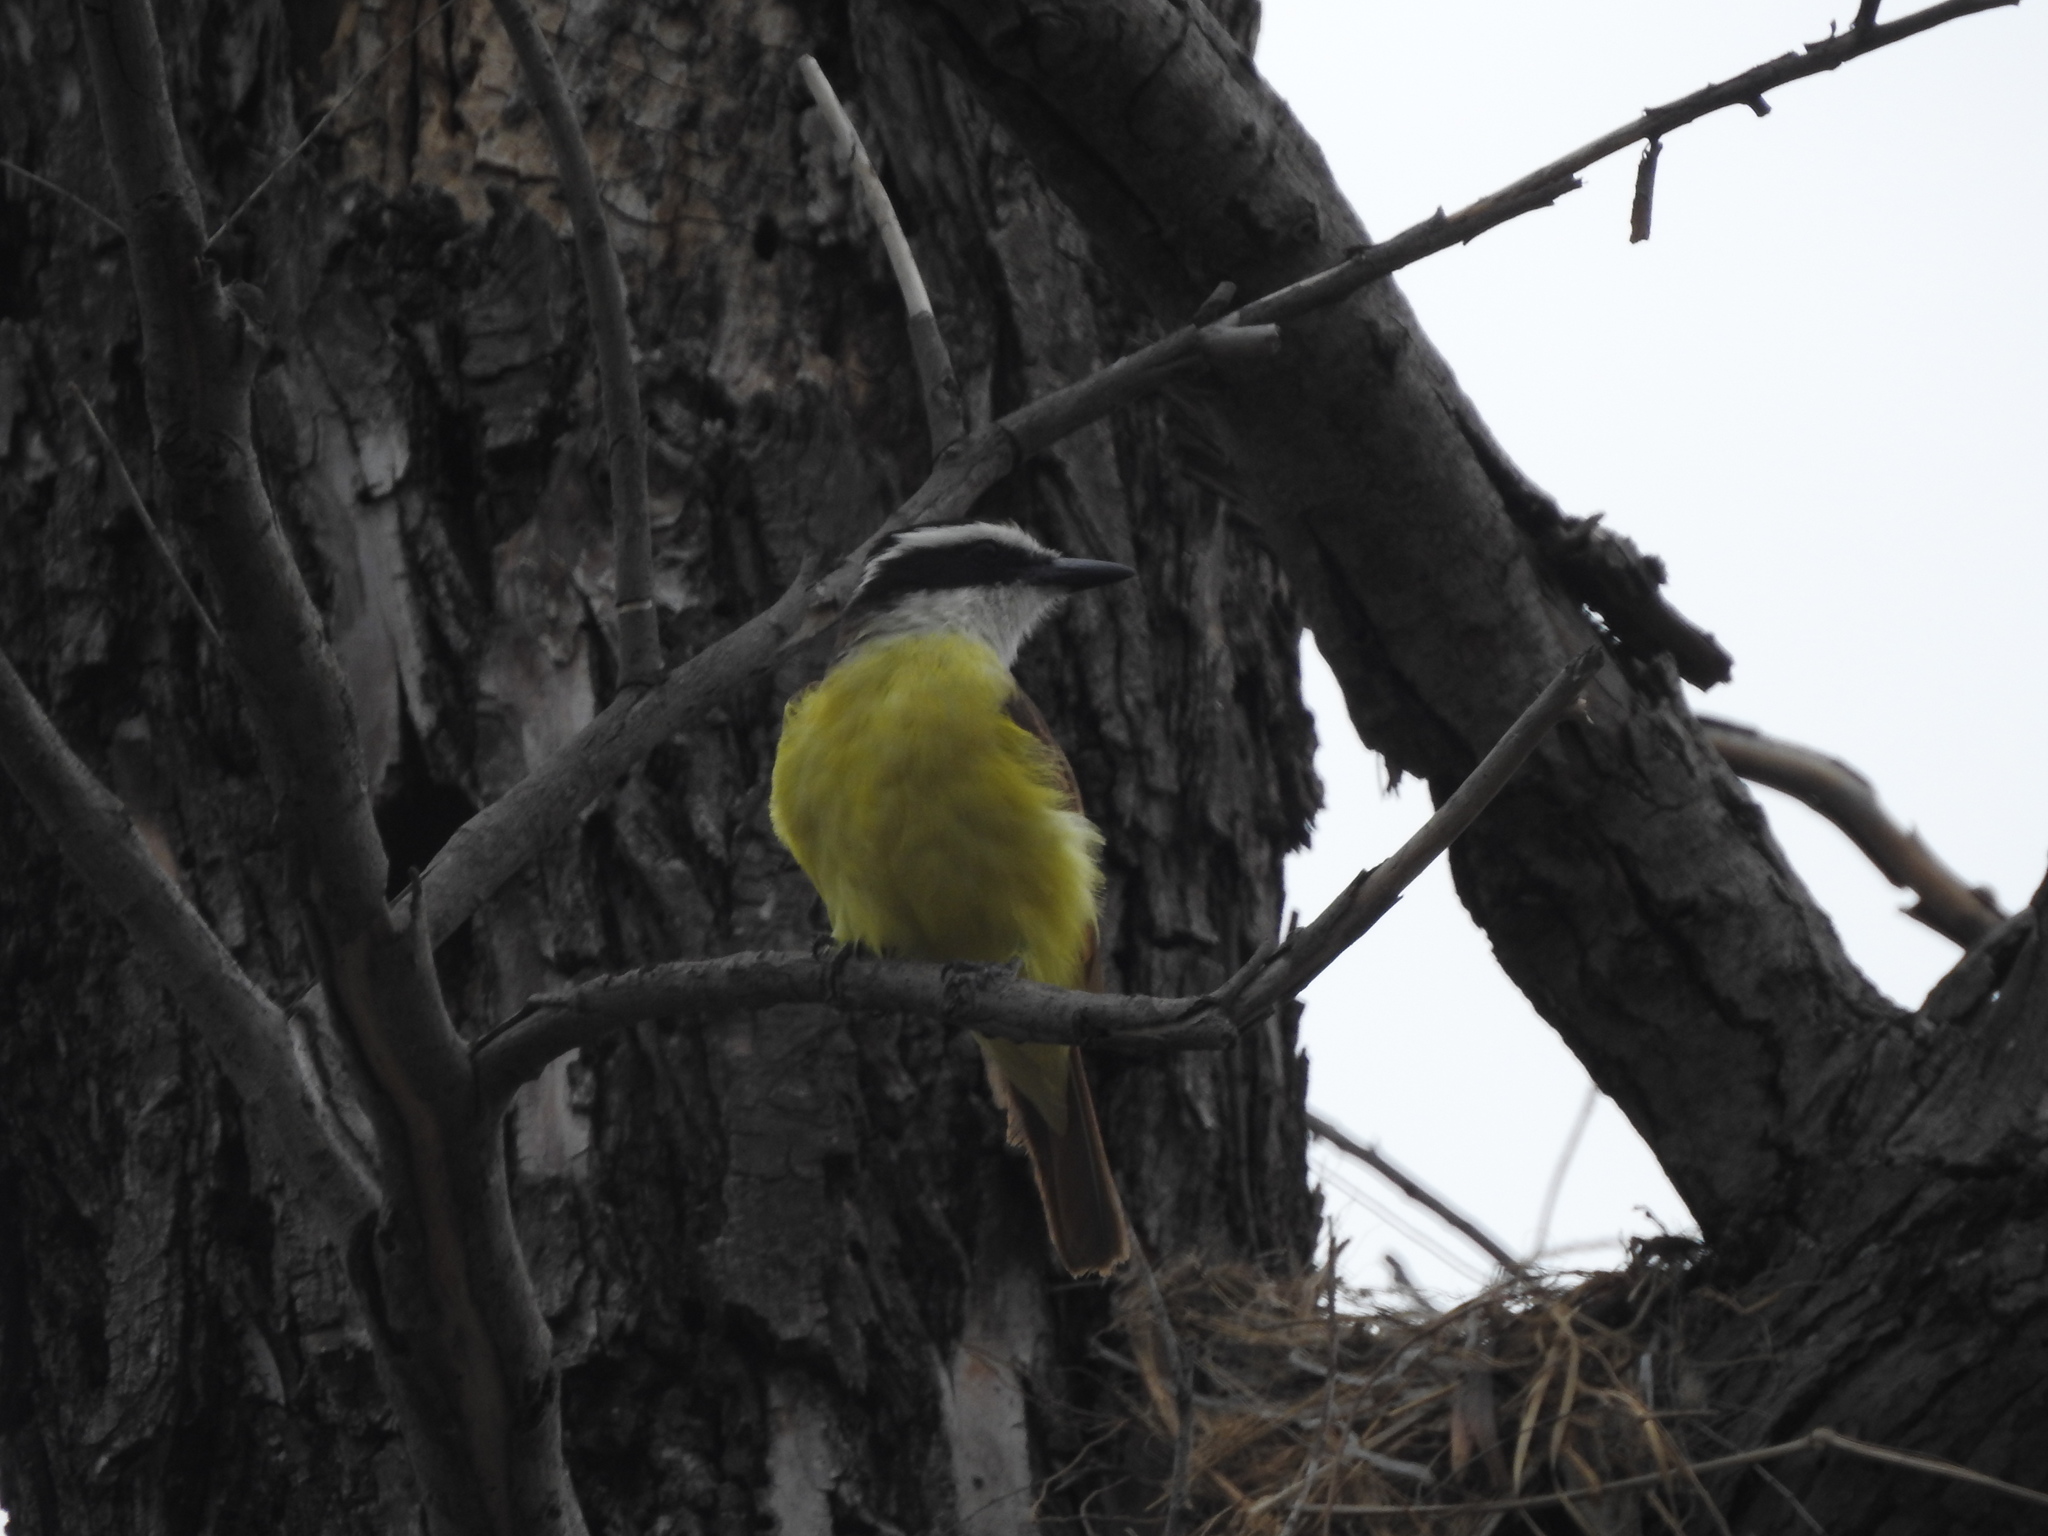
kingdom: Animalia
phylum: Chordata
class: Aves
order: Passeriformes
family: Tyrannidae
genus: Pitangus
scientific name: Pitangus sulphuratus
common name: Great kiskadee
